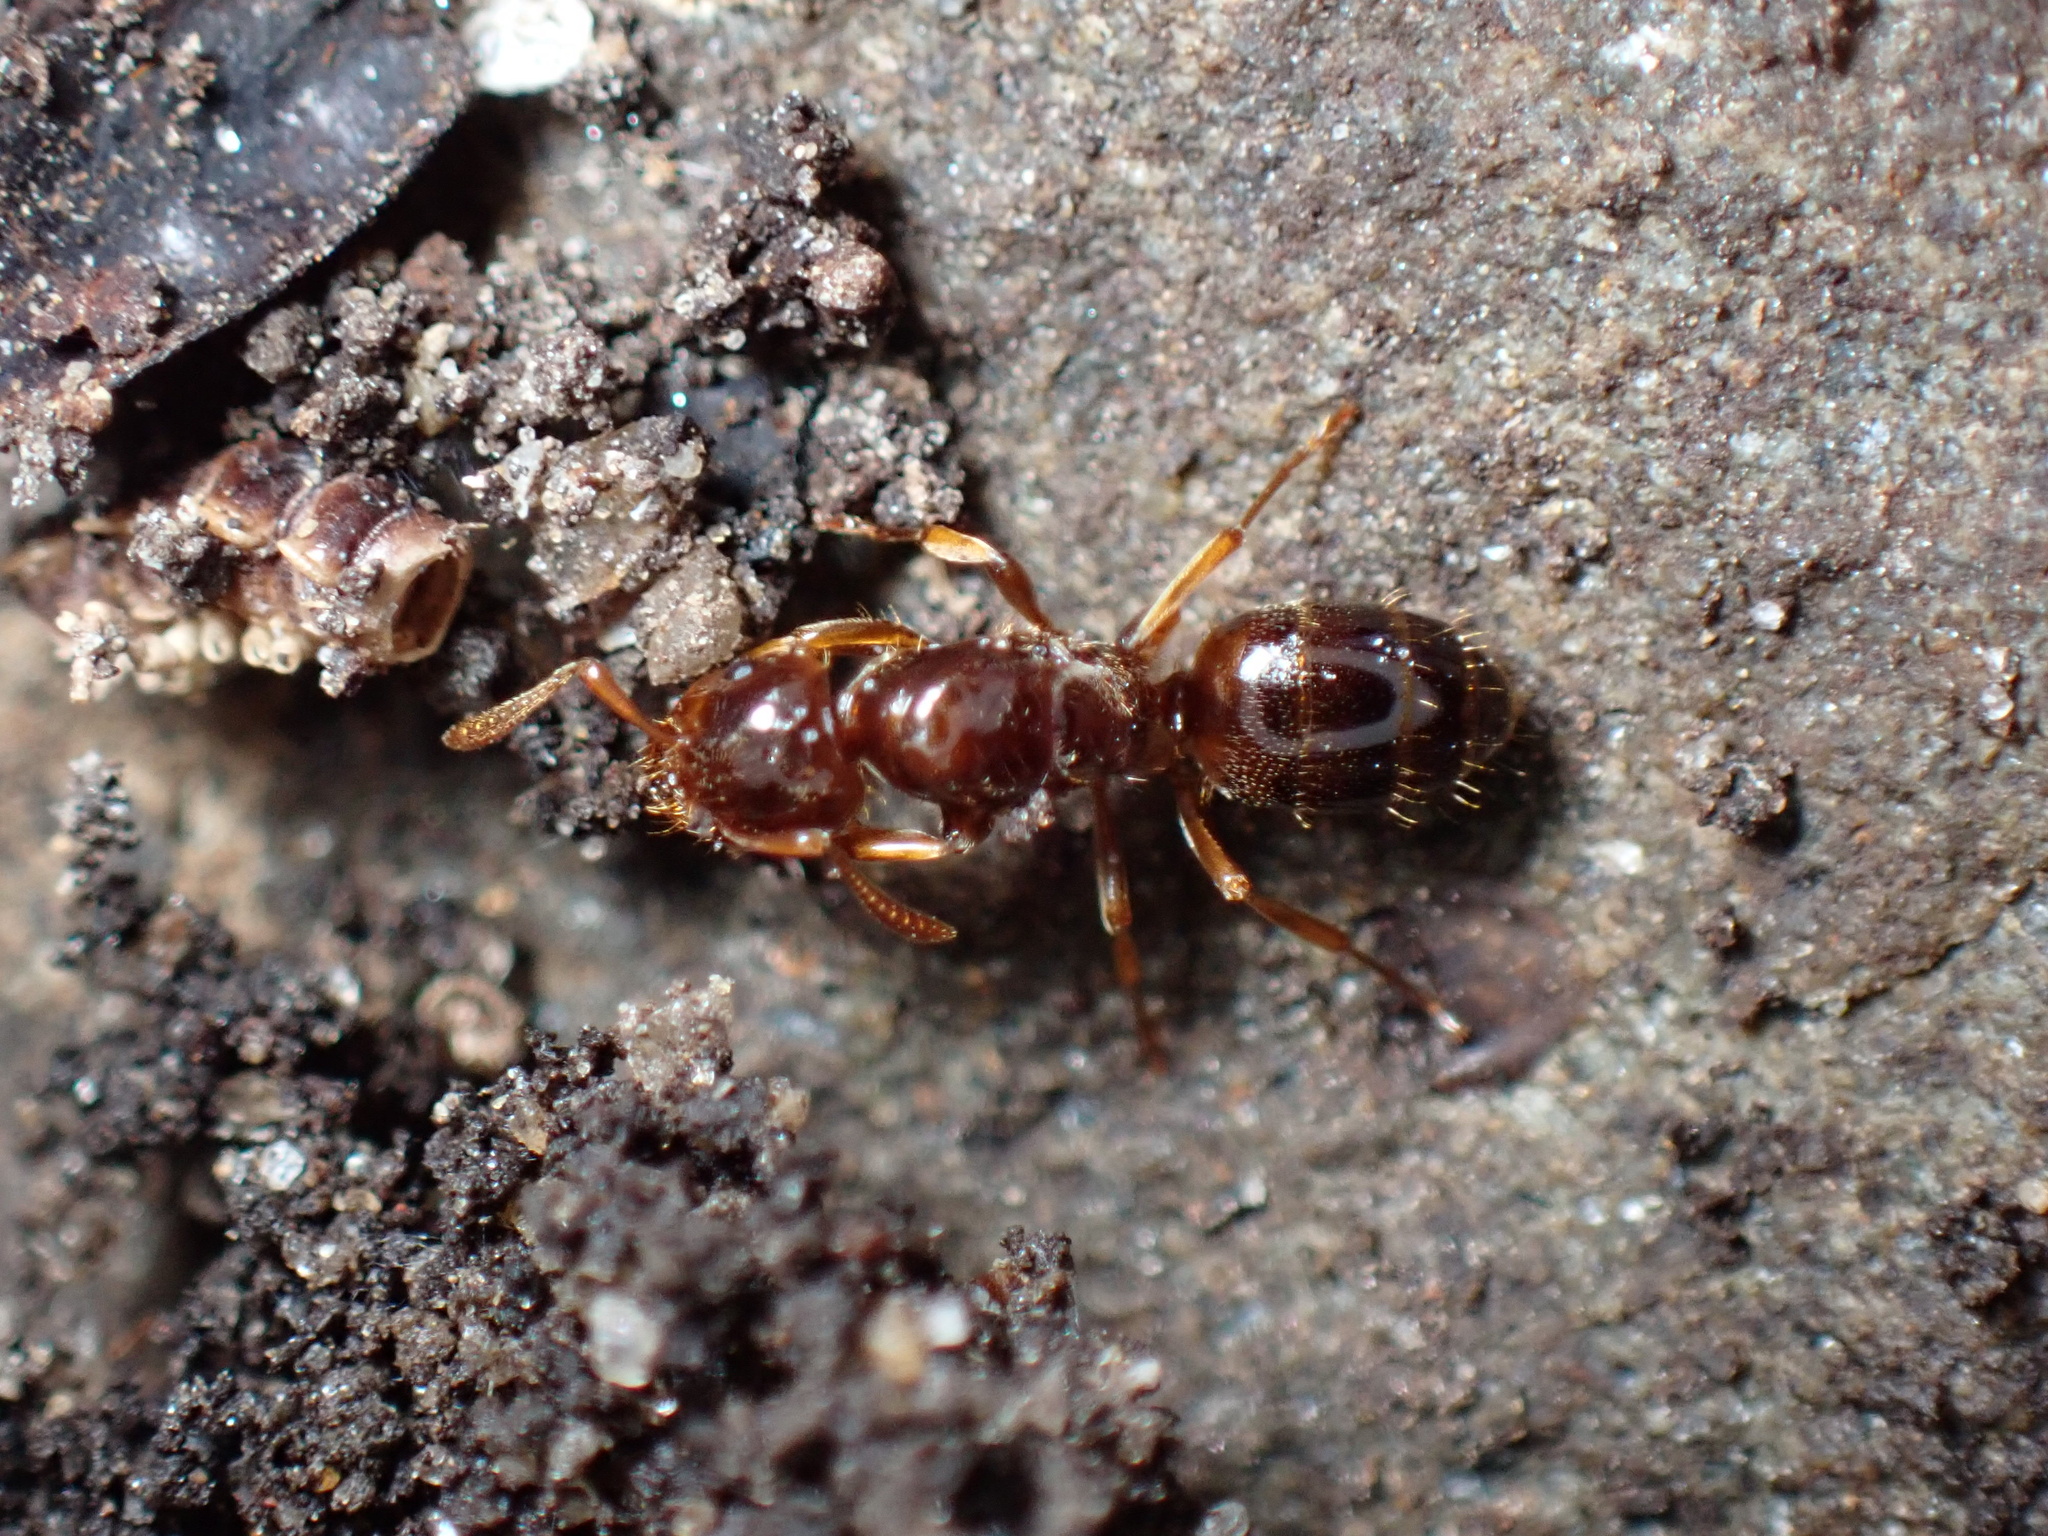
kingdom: Animalia
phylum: Arthropoda
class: Insecta
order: Hymenoptera
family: Formicidae
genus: Lasius
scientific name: Lasius claviger
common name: Common citronella ant
